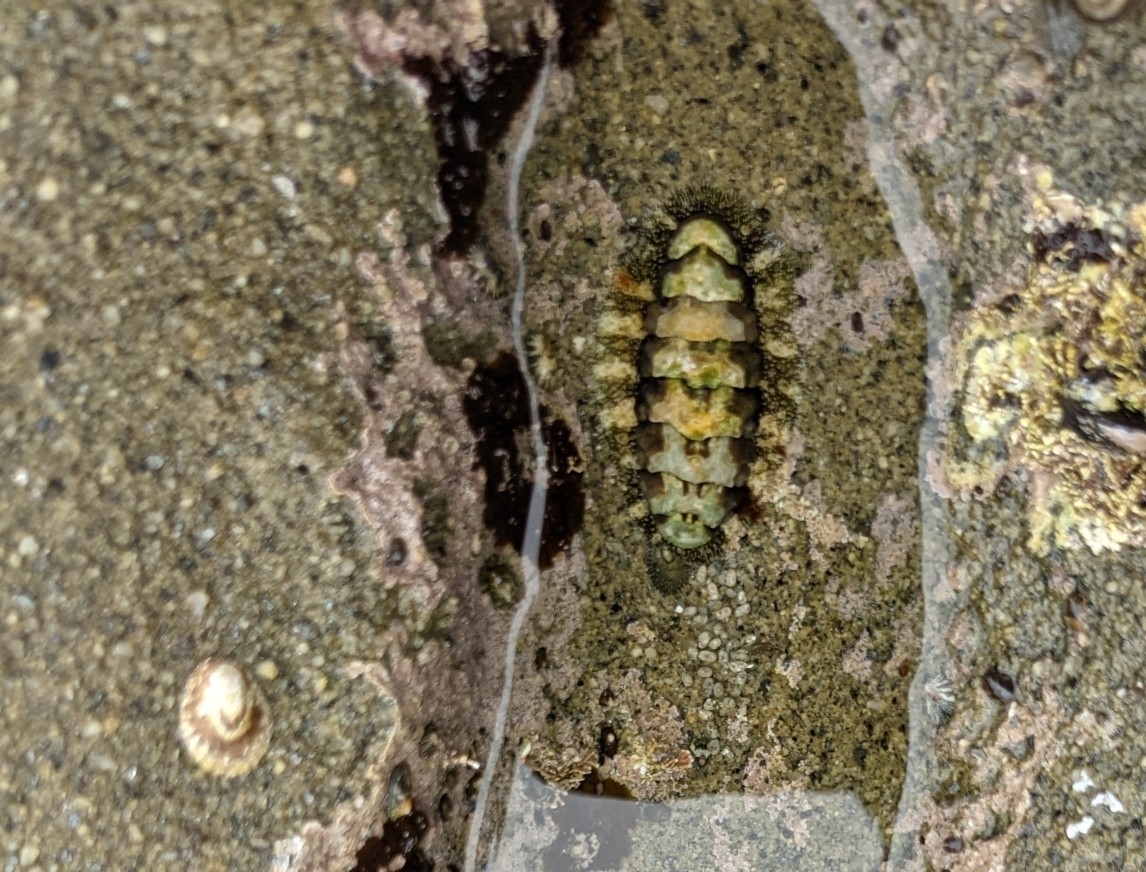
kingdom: Animalia
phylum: Mollusca
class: Polyplacophora
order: Chitonida
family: Tonicellidae
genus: Nuttallina
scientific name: Nuttallina californica
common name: California nuttall chiton
